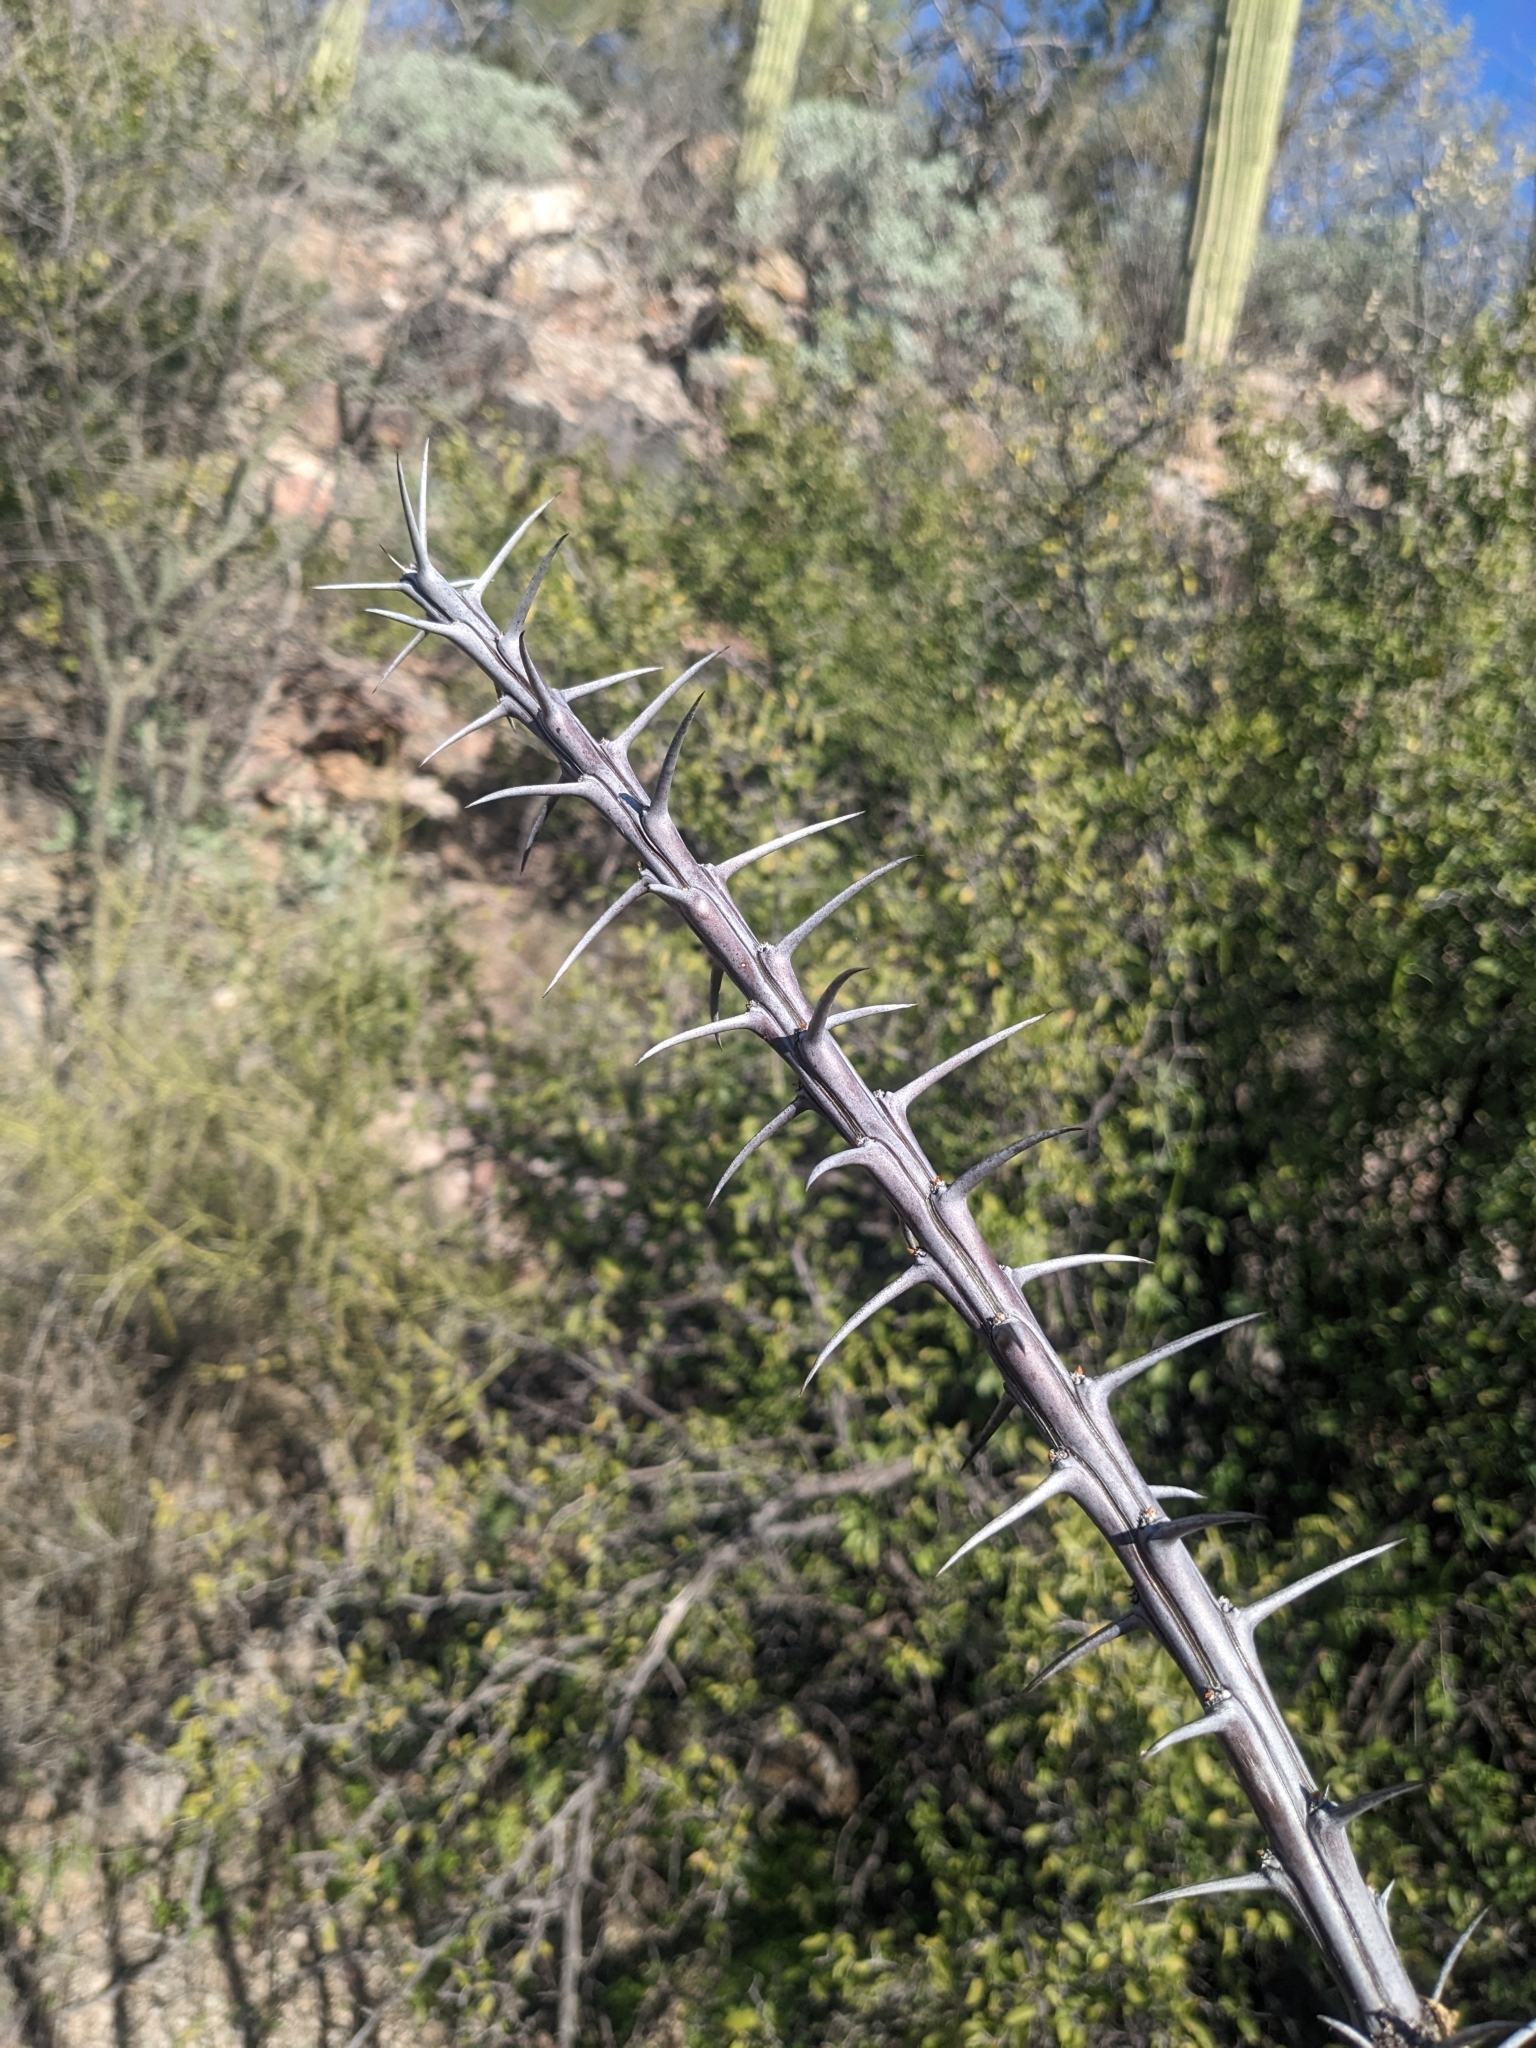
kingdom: Plantae
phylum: Tracheophyta
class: Magnoliopsida
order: Ericales
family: Fouquieriaceae
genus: Fouquieria
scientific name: Fouquieria splendens
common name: Vine-cactus
